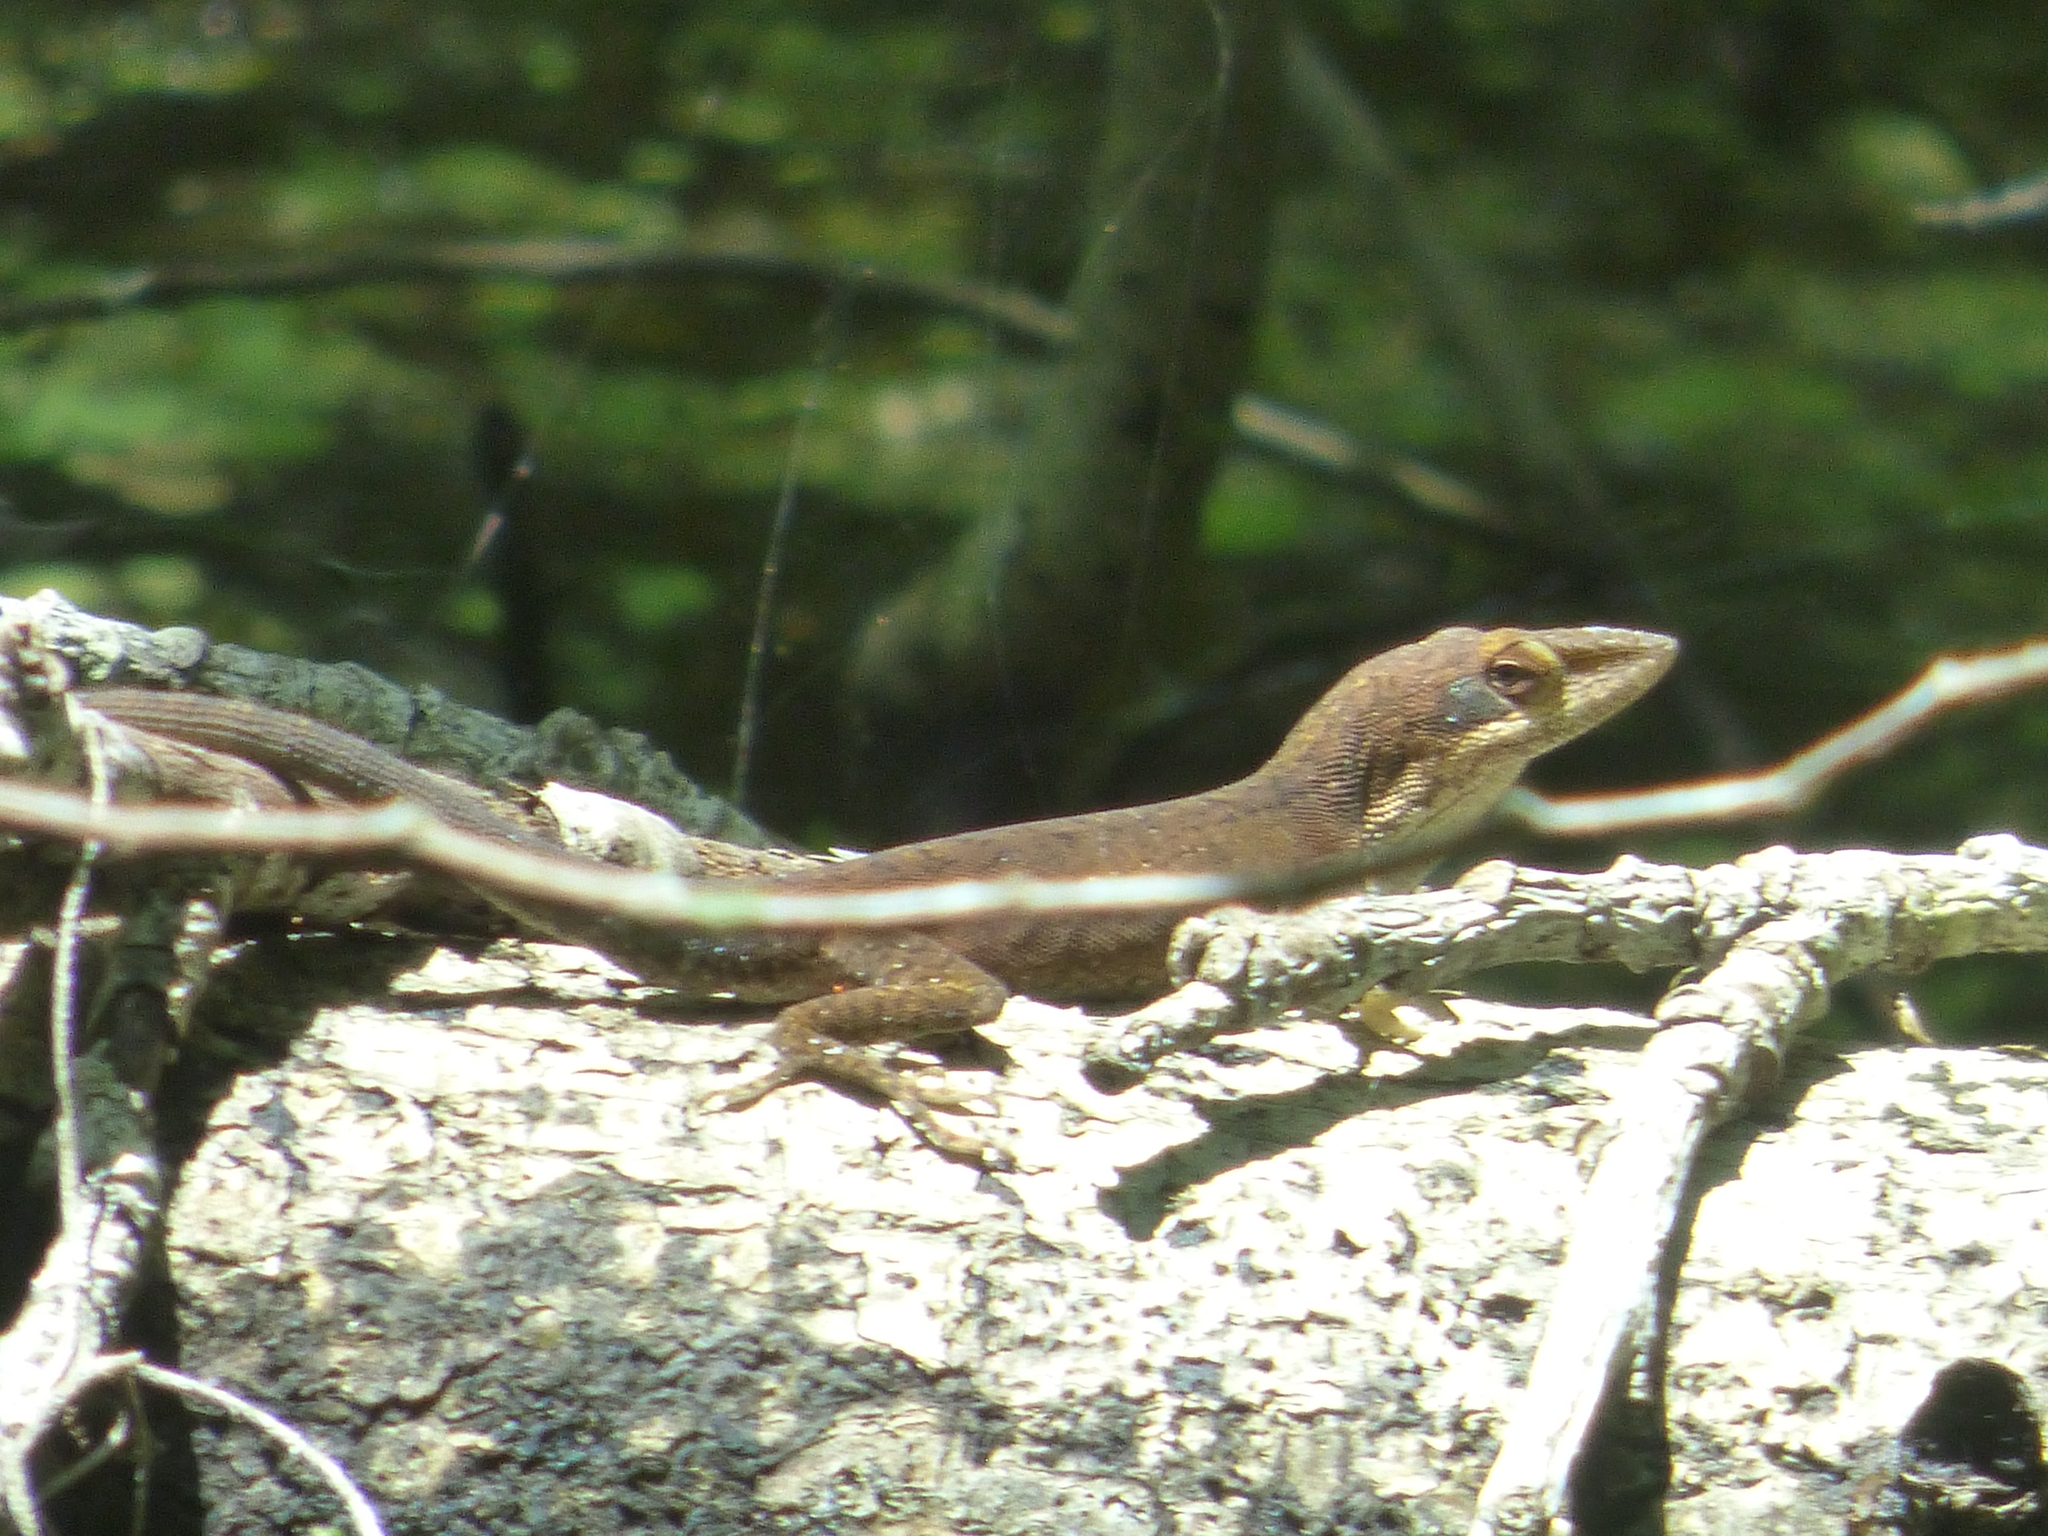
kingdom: Animalia
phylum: Chordata
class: Squamata
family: Dactyloidae
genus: Anolis
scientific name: Anolis carolinensis
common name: Green anole
